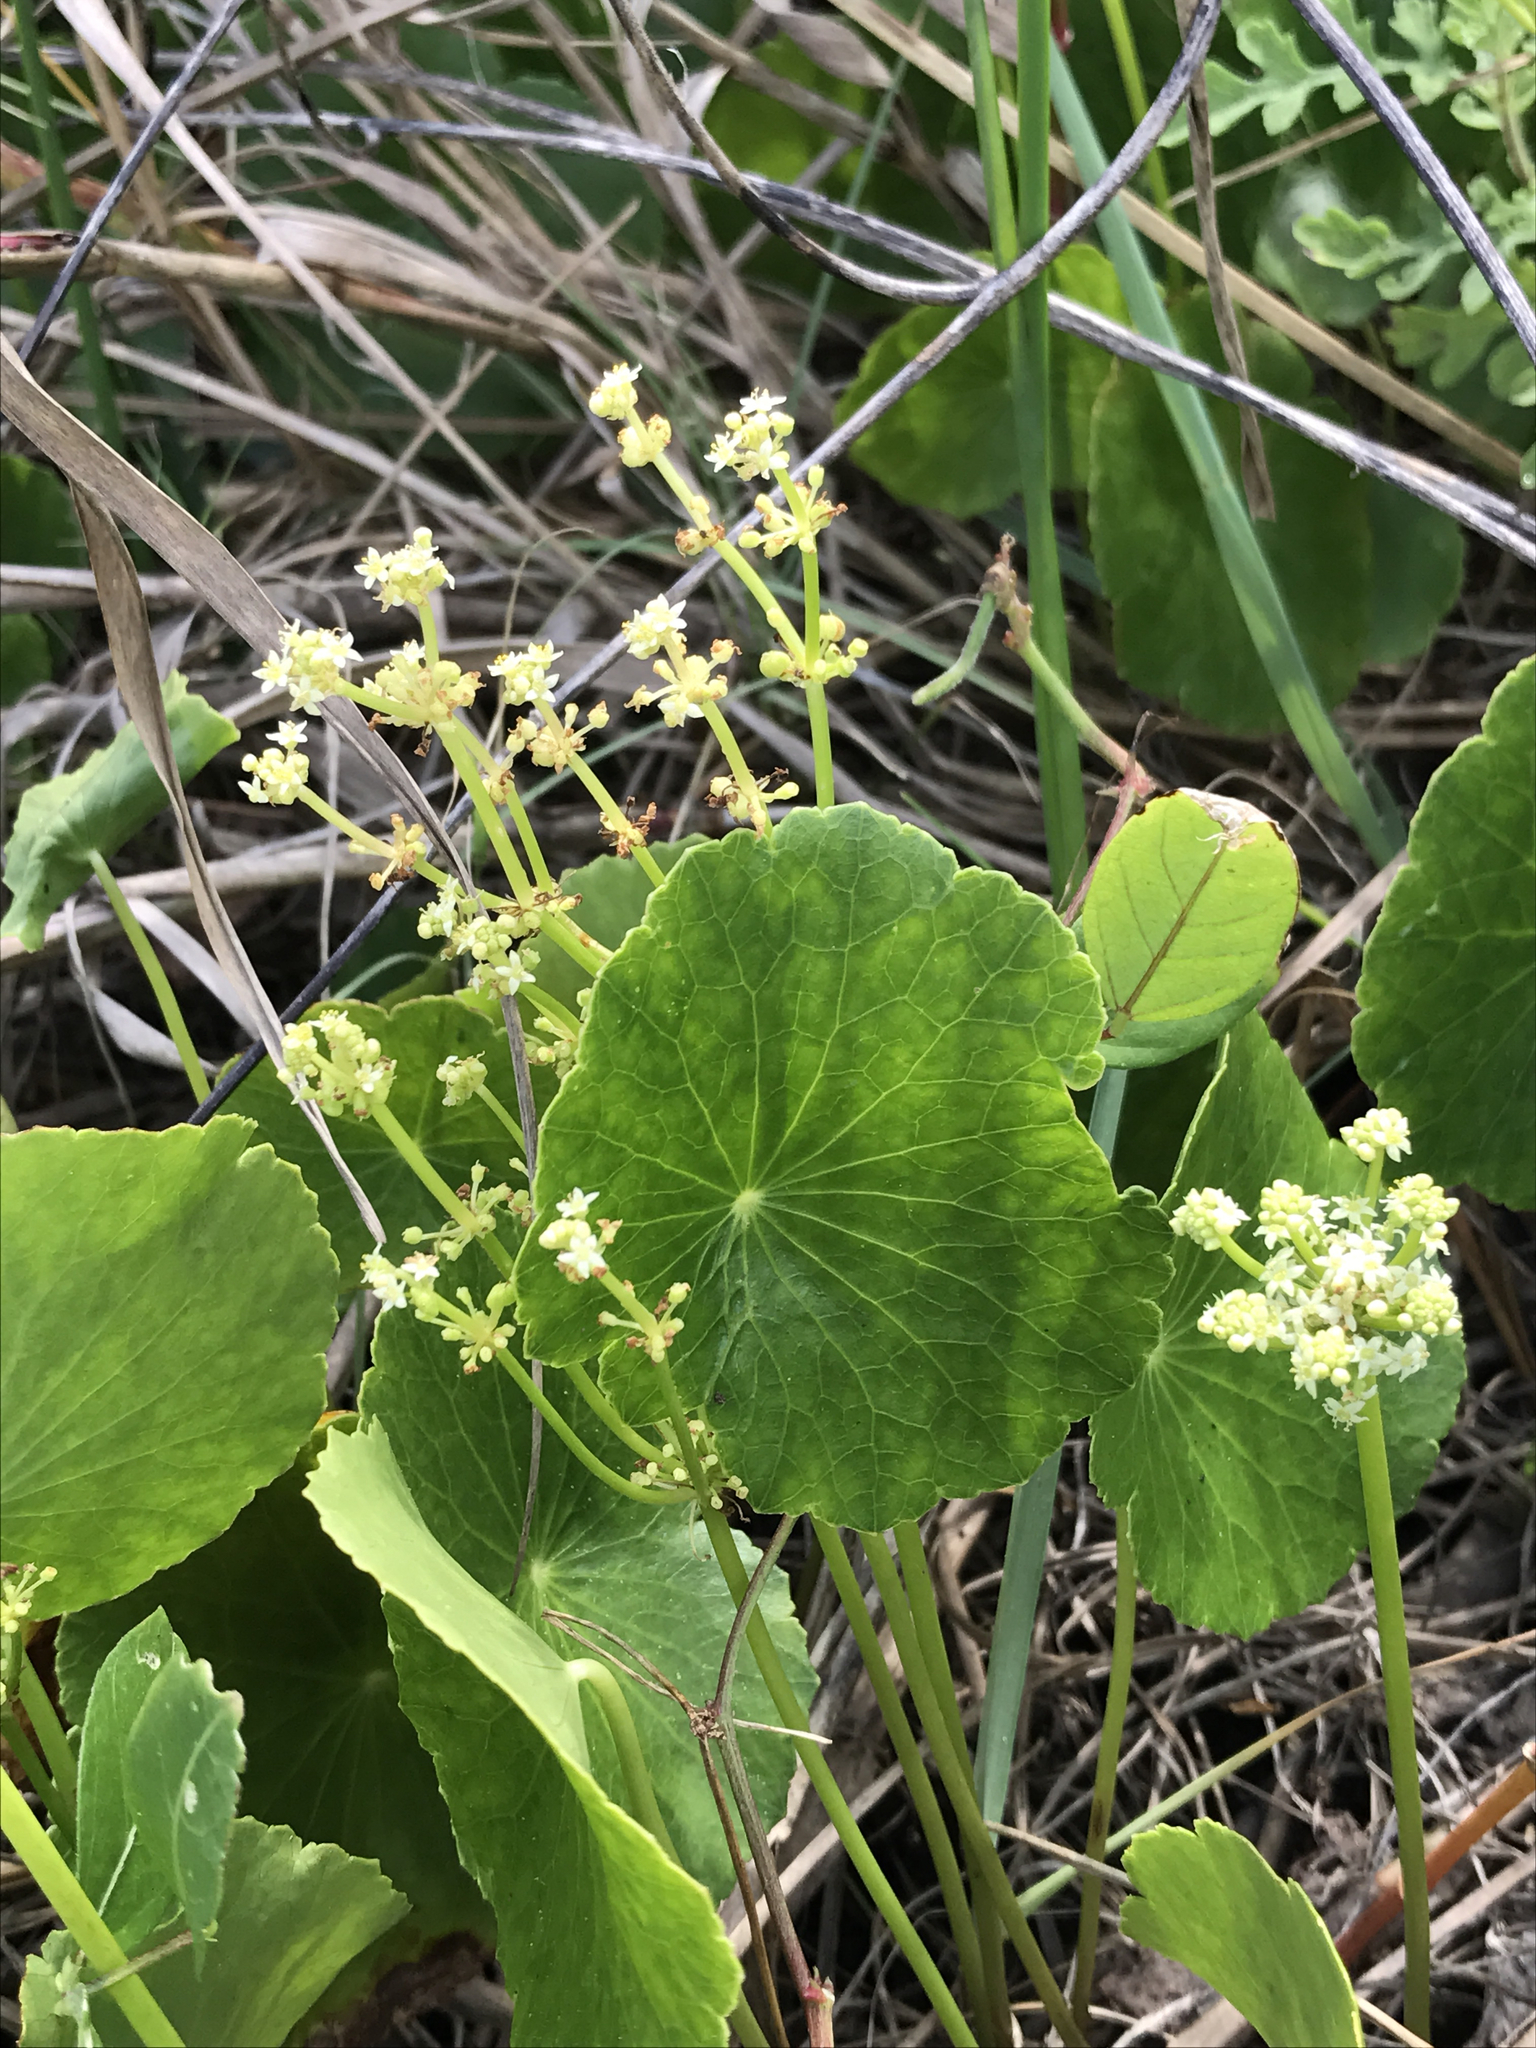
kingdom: Plantae
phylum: Tracheophyta
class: Magnoliopsida
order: Apiales
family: Araliaceae
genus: Hydrocotyle
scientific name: Hydrocotyle bonariensis
